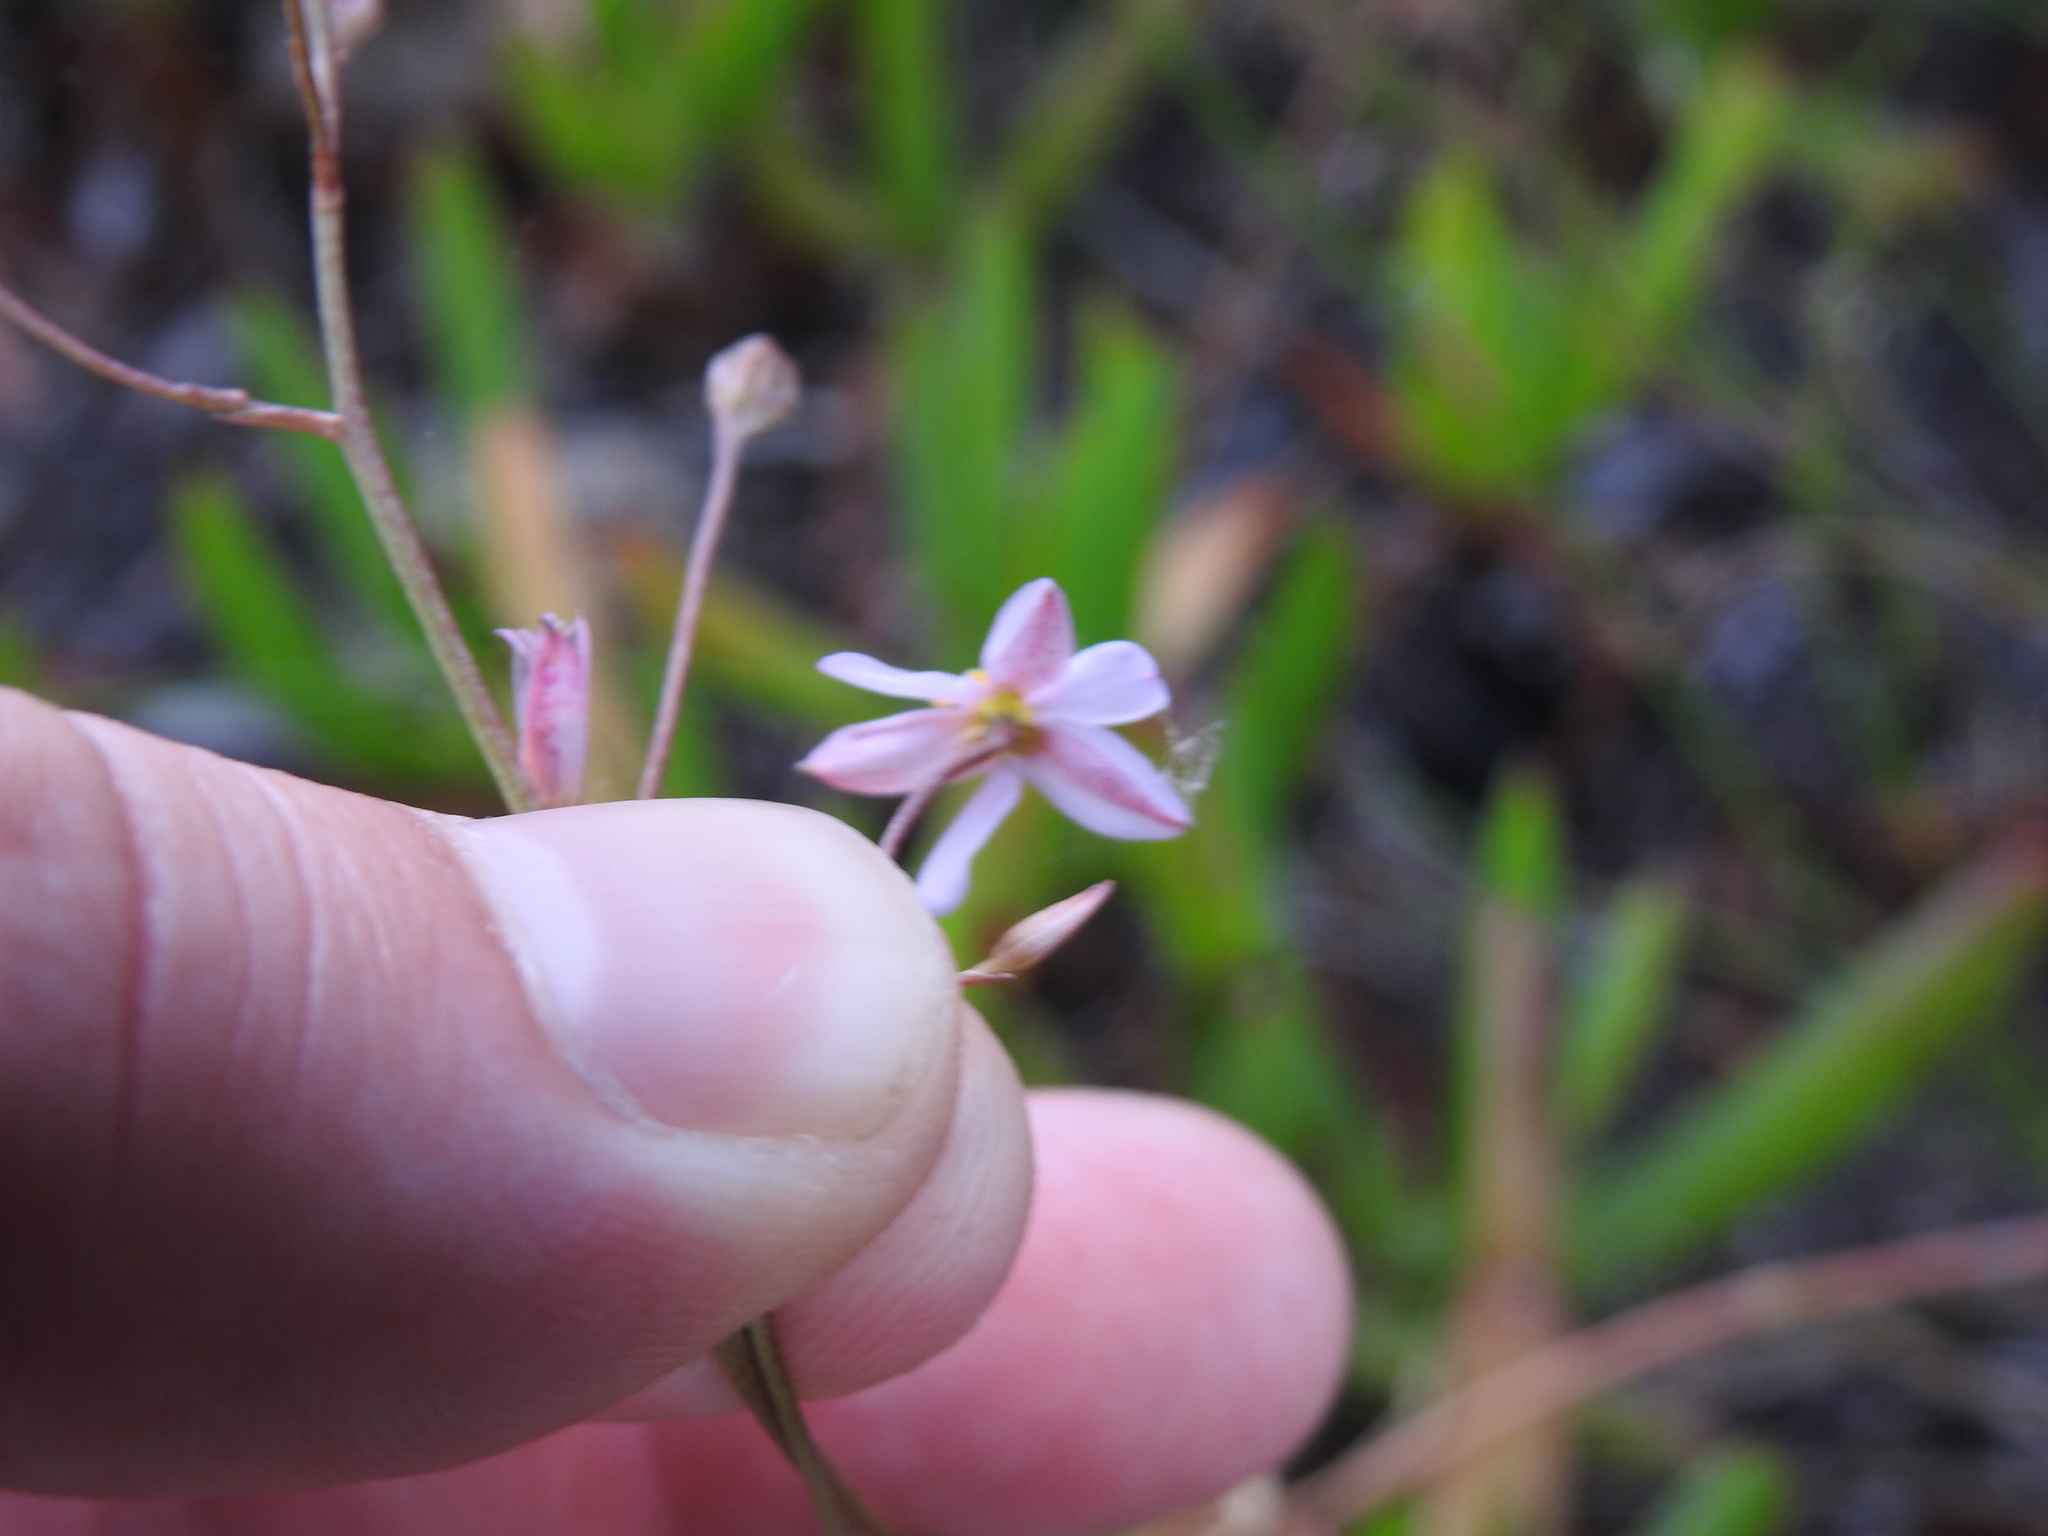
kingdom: Plantae
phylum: Tracheophyta
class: Liliopsida
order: Asparagales
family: Tecophilaeaceae
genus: Cyanella
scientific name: Cyanella hyacinthoides
